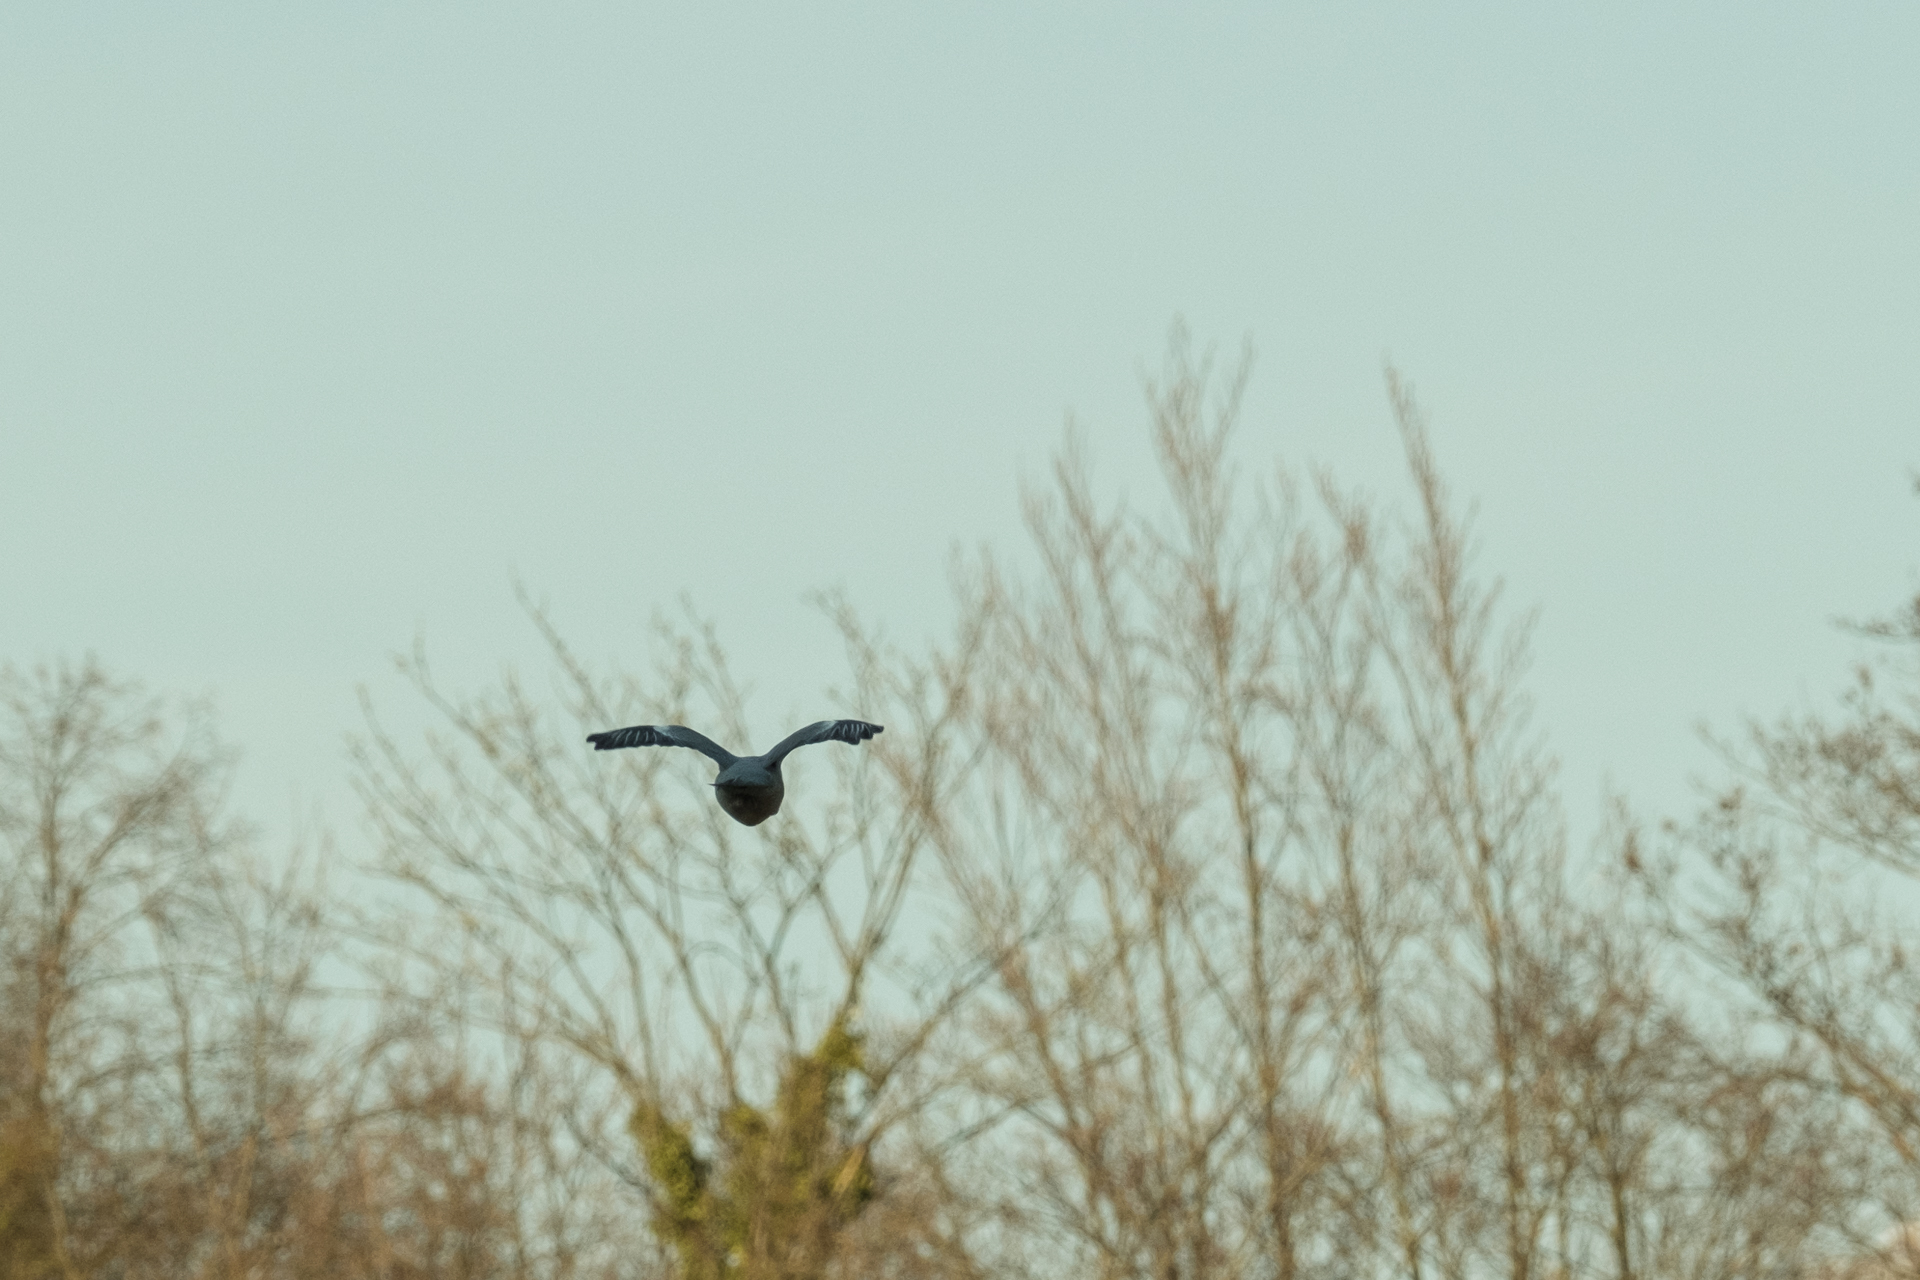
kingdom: Animalia
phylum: Chordata
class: Aves
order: Columbiformes
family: Columbidae
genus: Columba
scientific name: Columba palumbus
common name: Common wood pigeon
